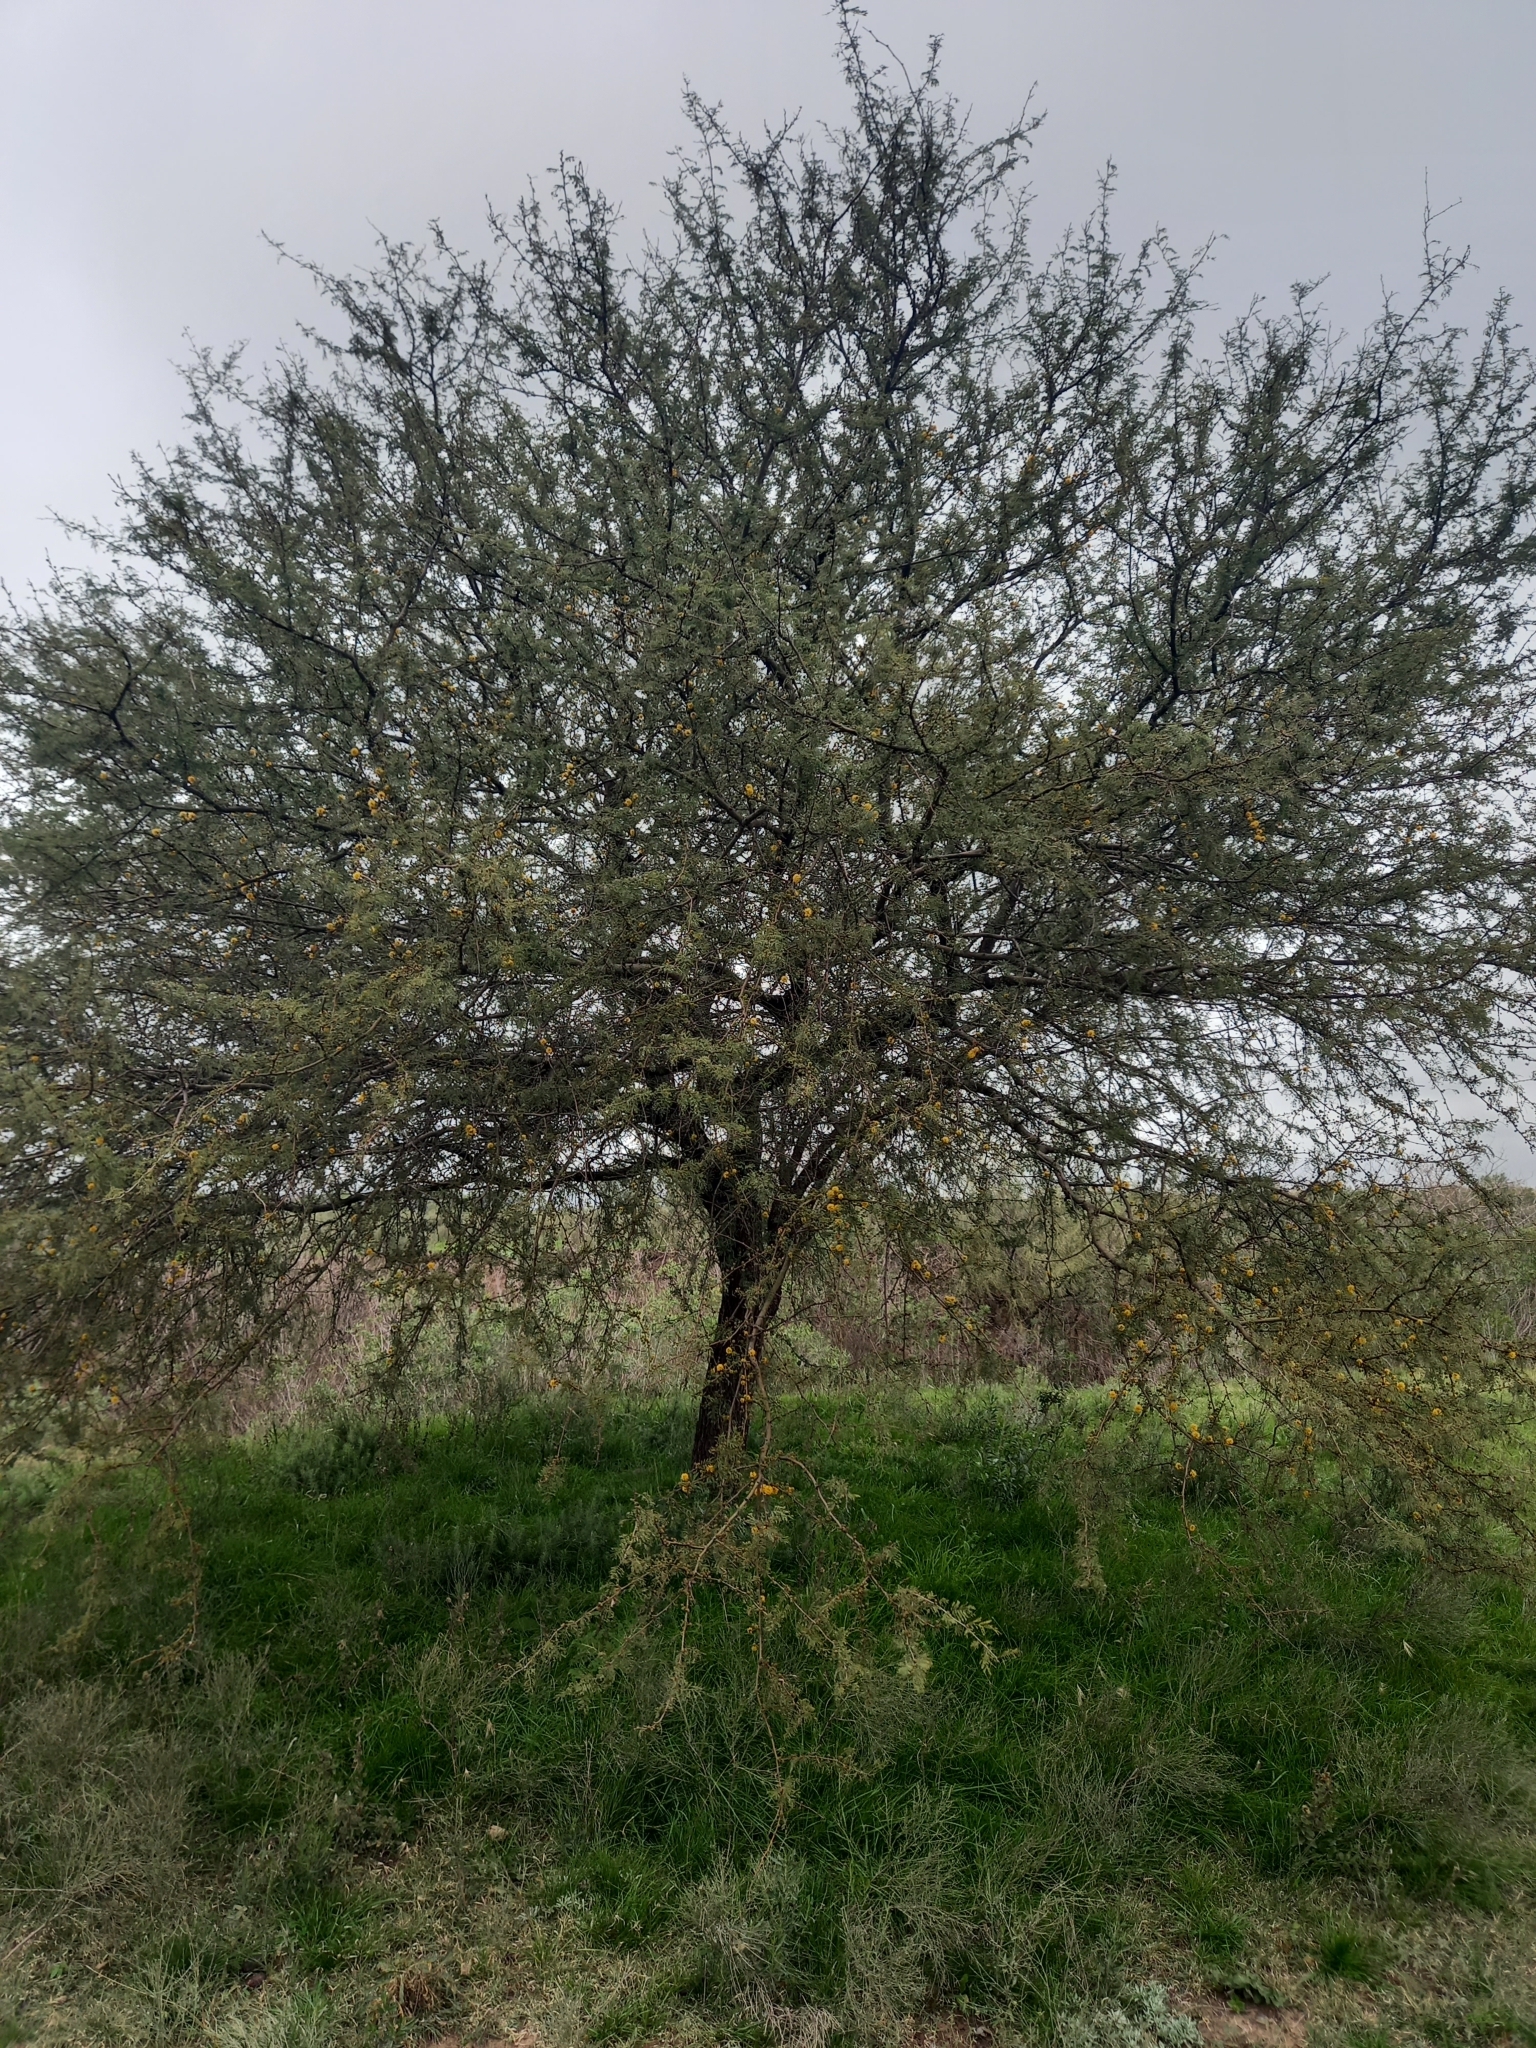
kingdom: Plantae
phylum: Tracheophyta
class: Magnoliopsida
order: Fabales
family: Fabaceae
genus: Vachellia
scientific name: Vachellia caven
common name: Roman cassie
